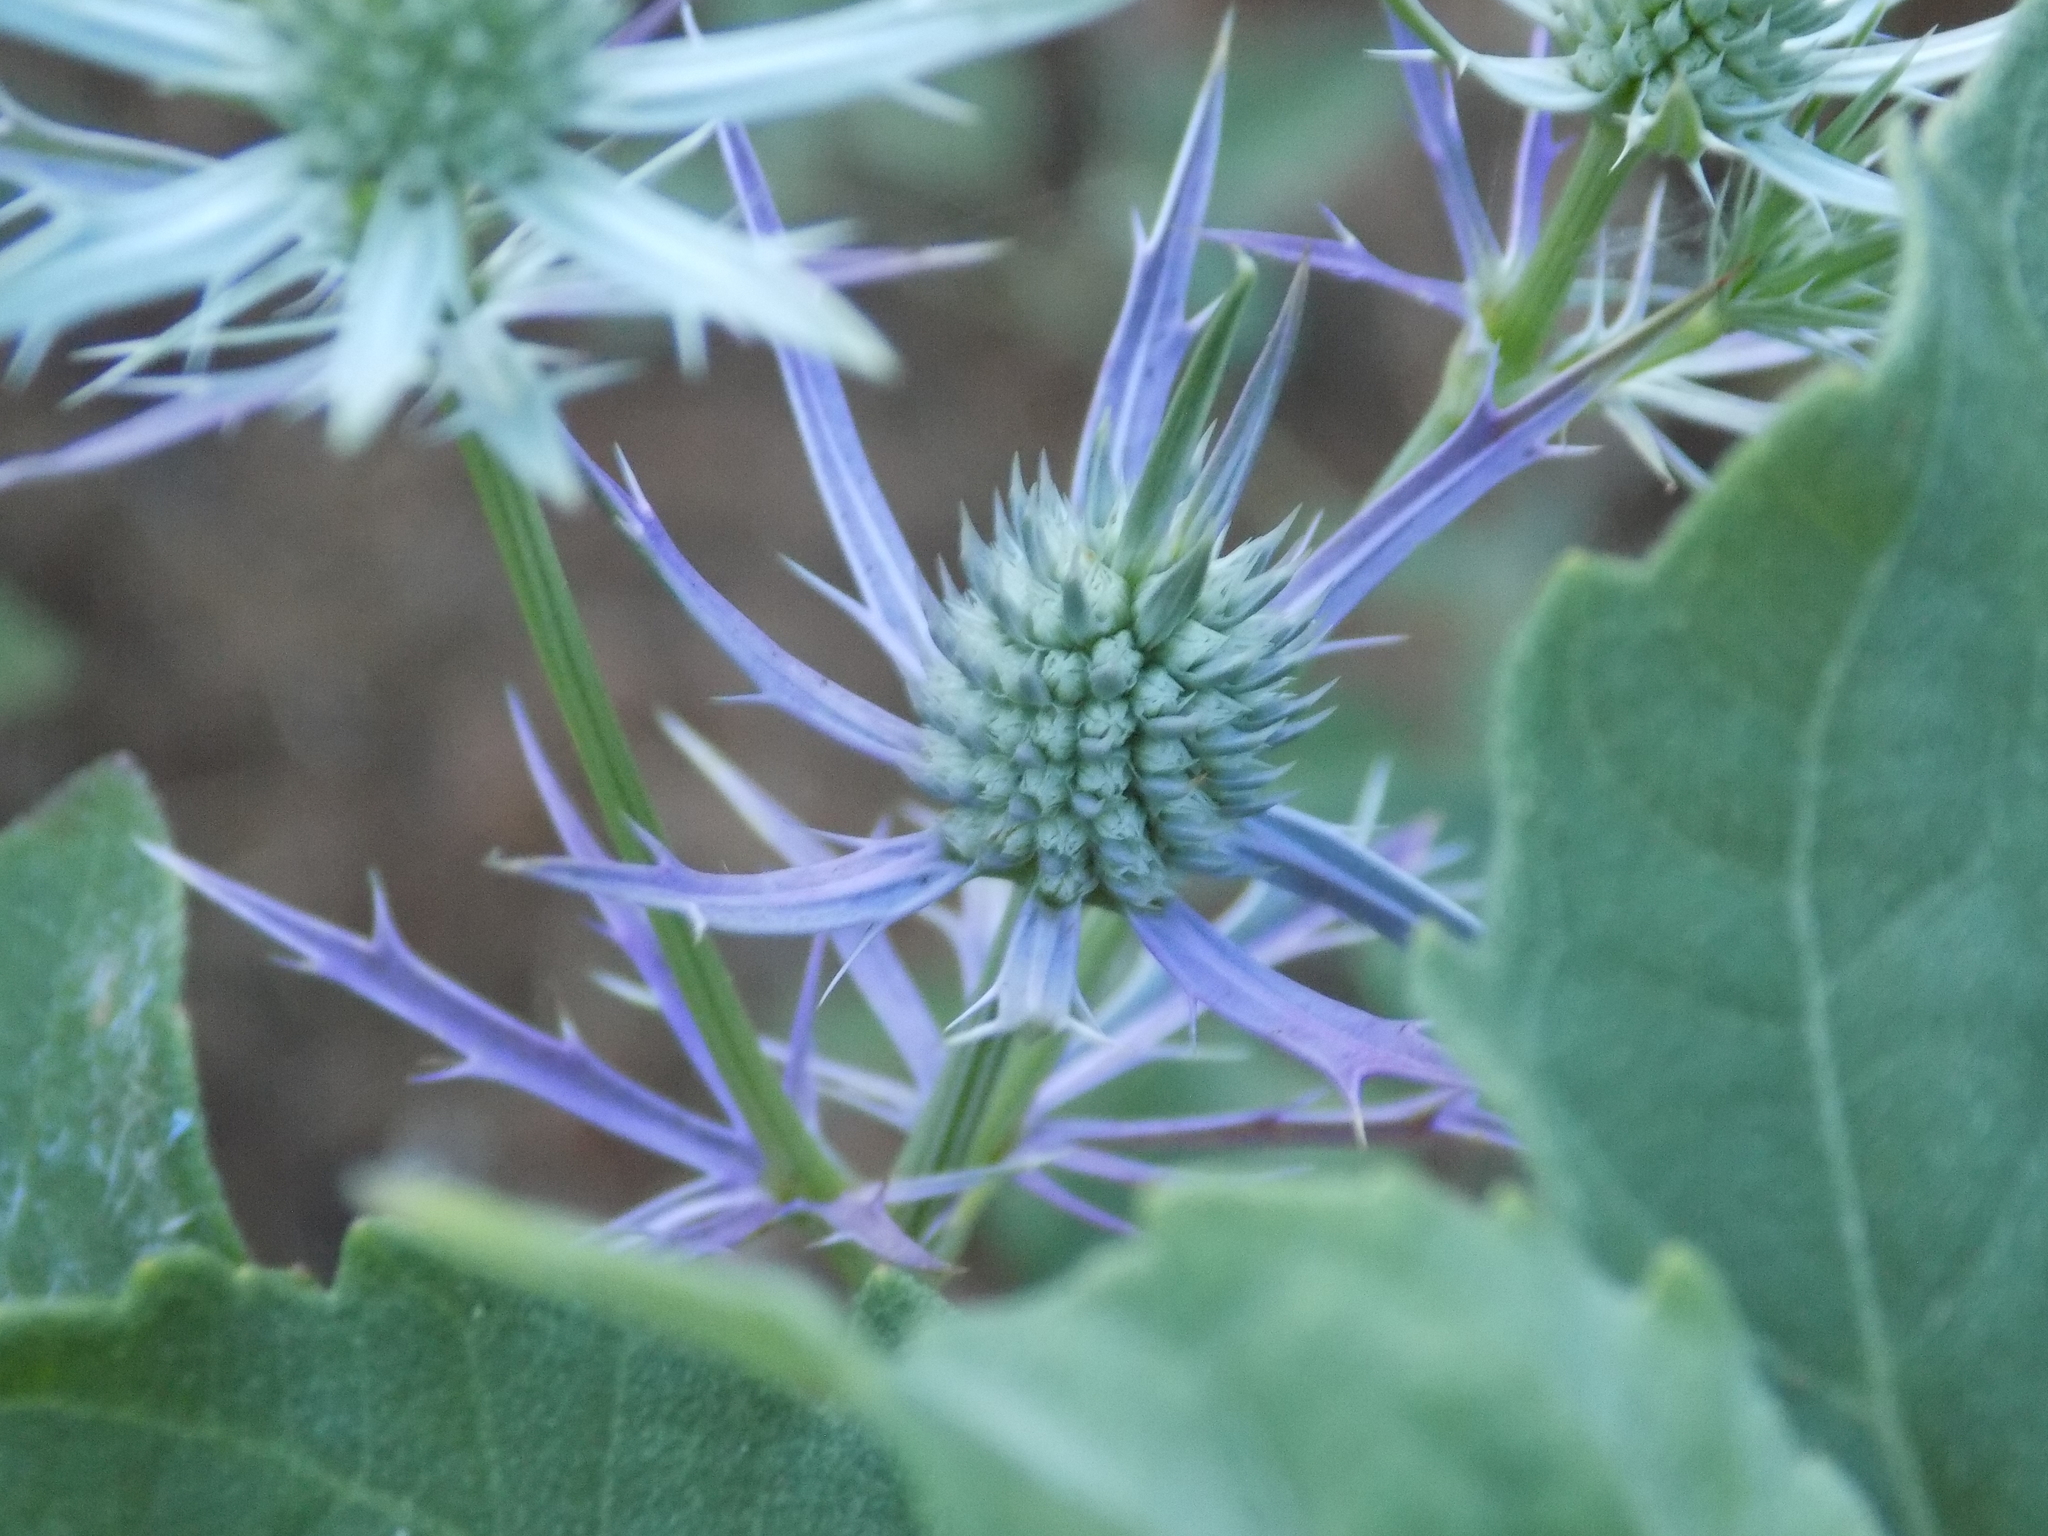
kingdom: Plantae
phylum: Tracheophyta
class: Magnoliopsida
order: Apiales
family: Apiaceae
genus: Eryngium
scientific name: Eryngium hookeri
